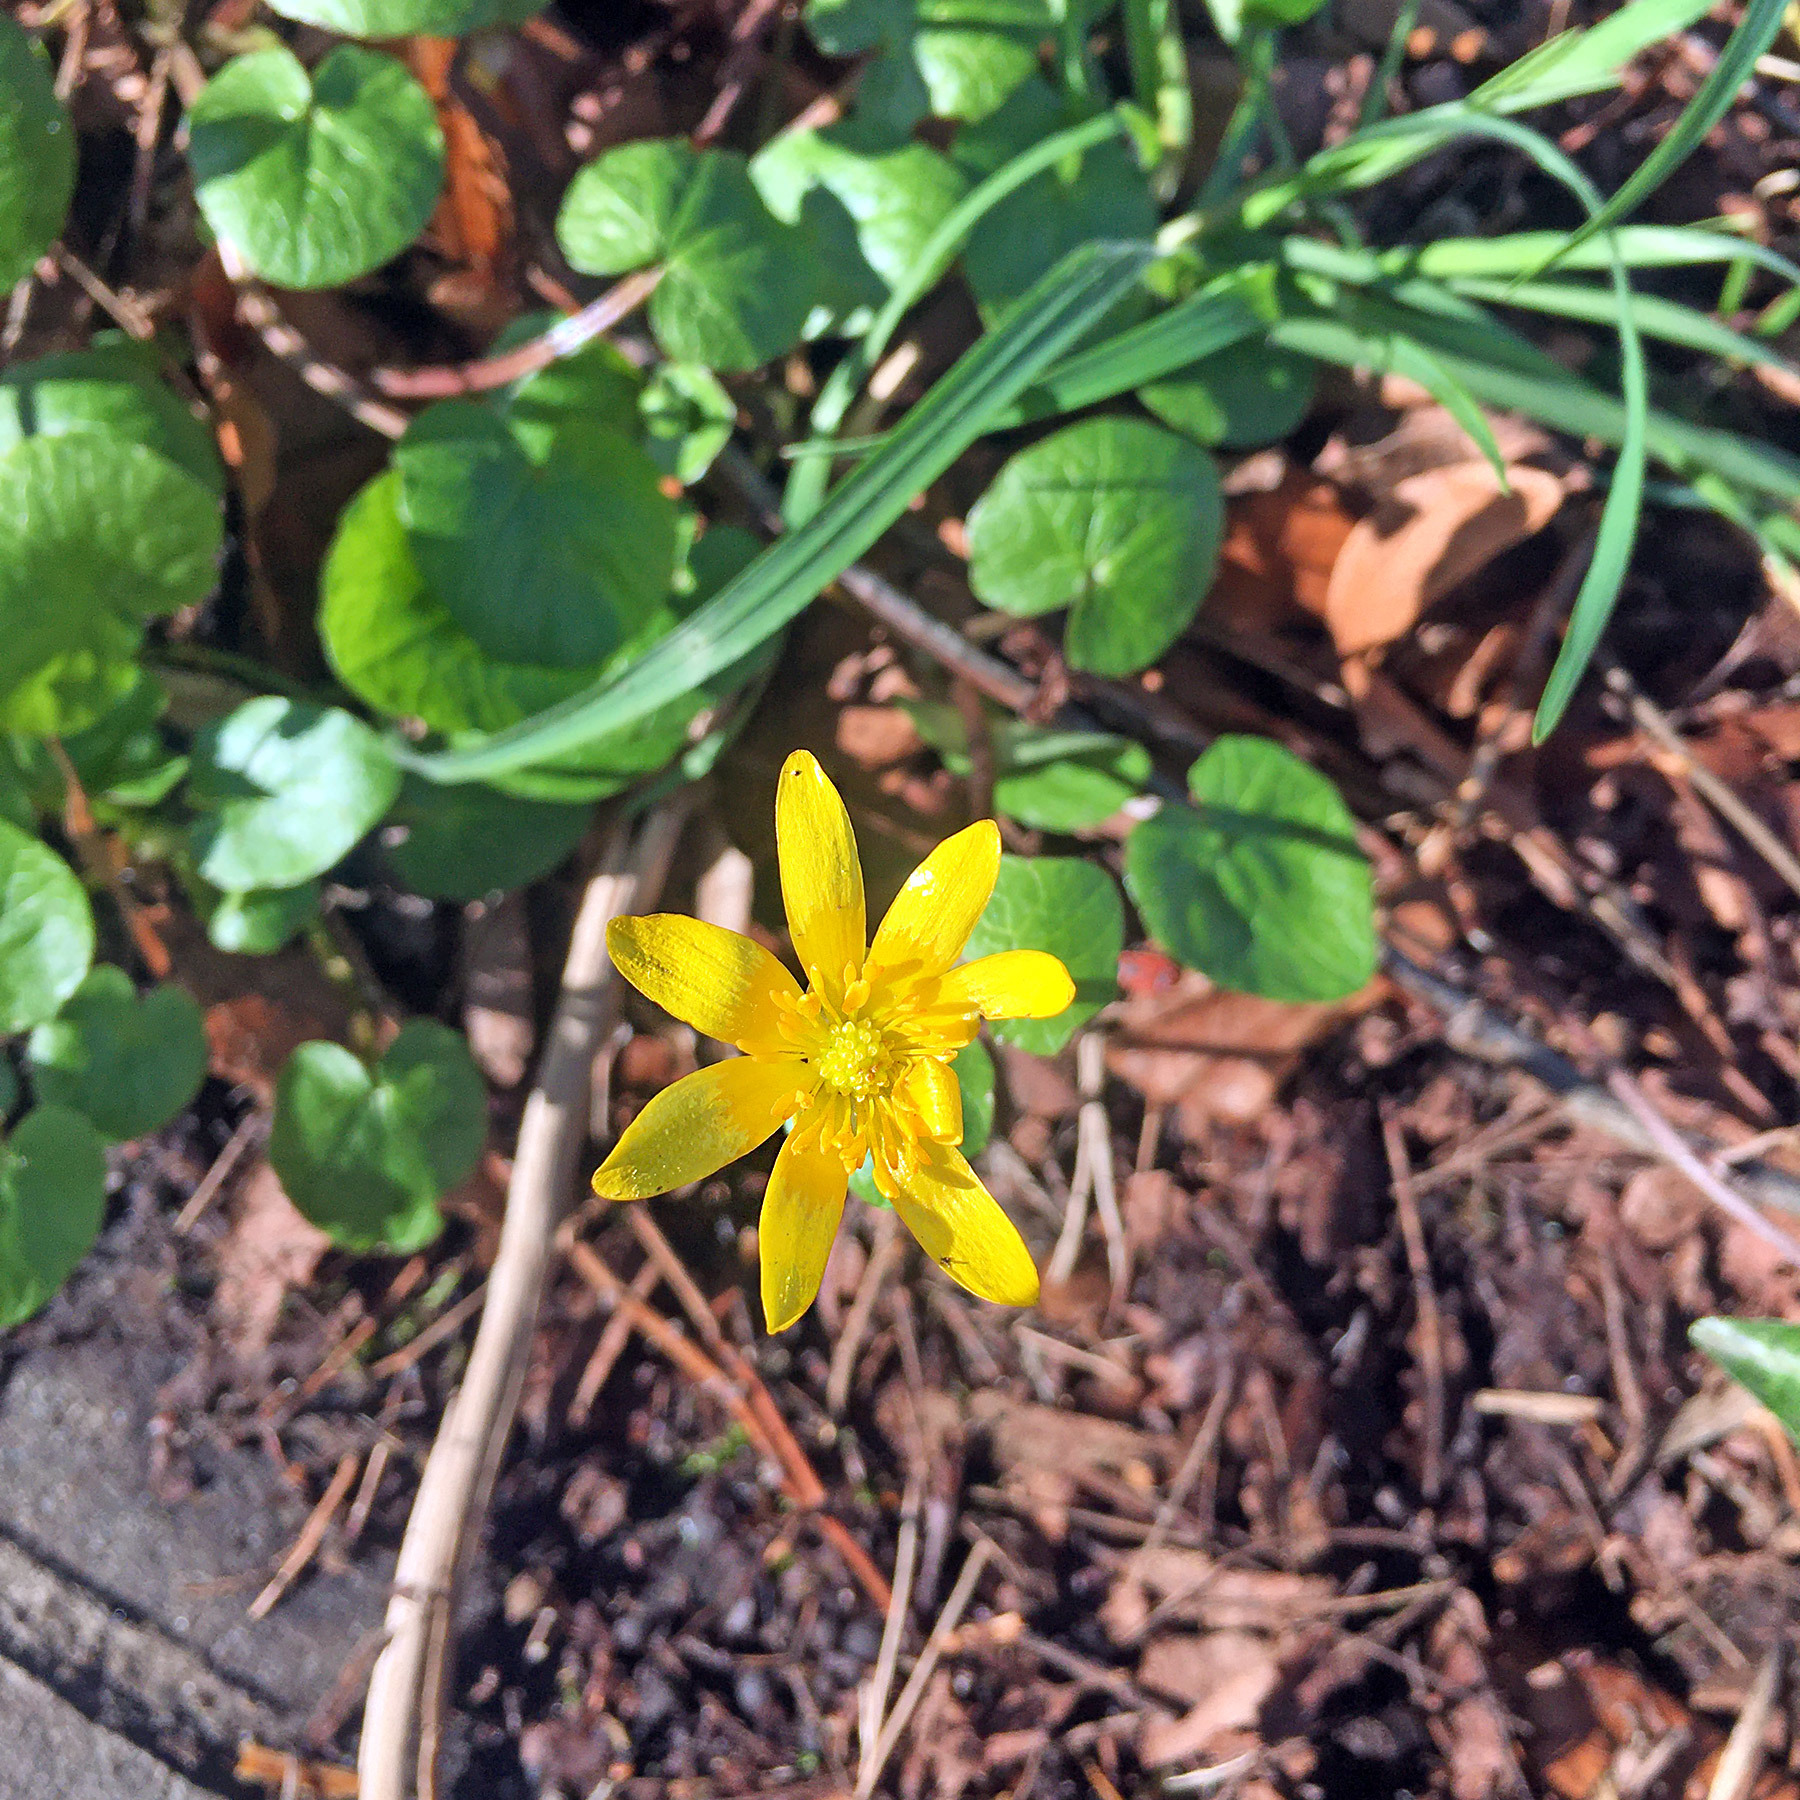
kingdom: Plantae
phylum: Tracheophyta
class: Magnoliopsida
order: Ranunculales
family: Ranunculaceae
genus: Ficaria
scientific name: Ficaria verna
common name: Lesser celandine
